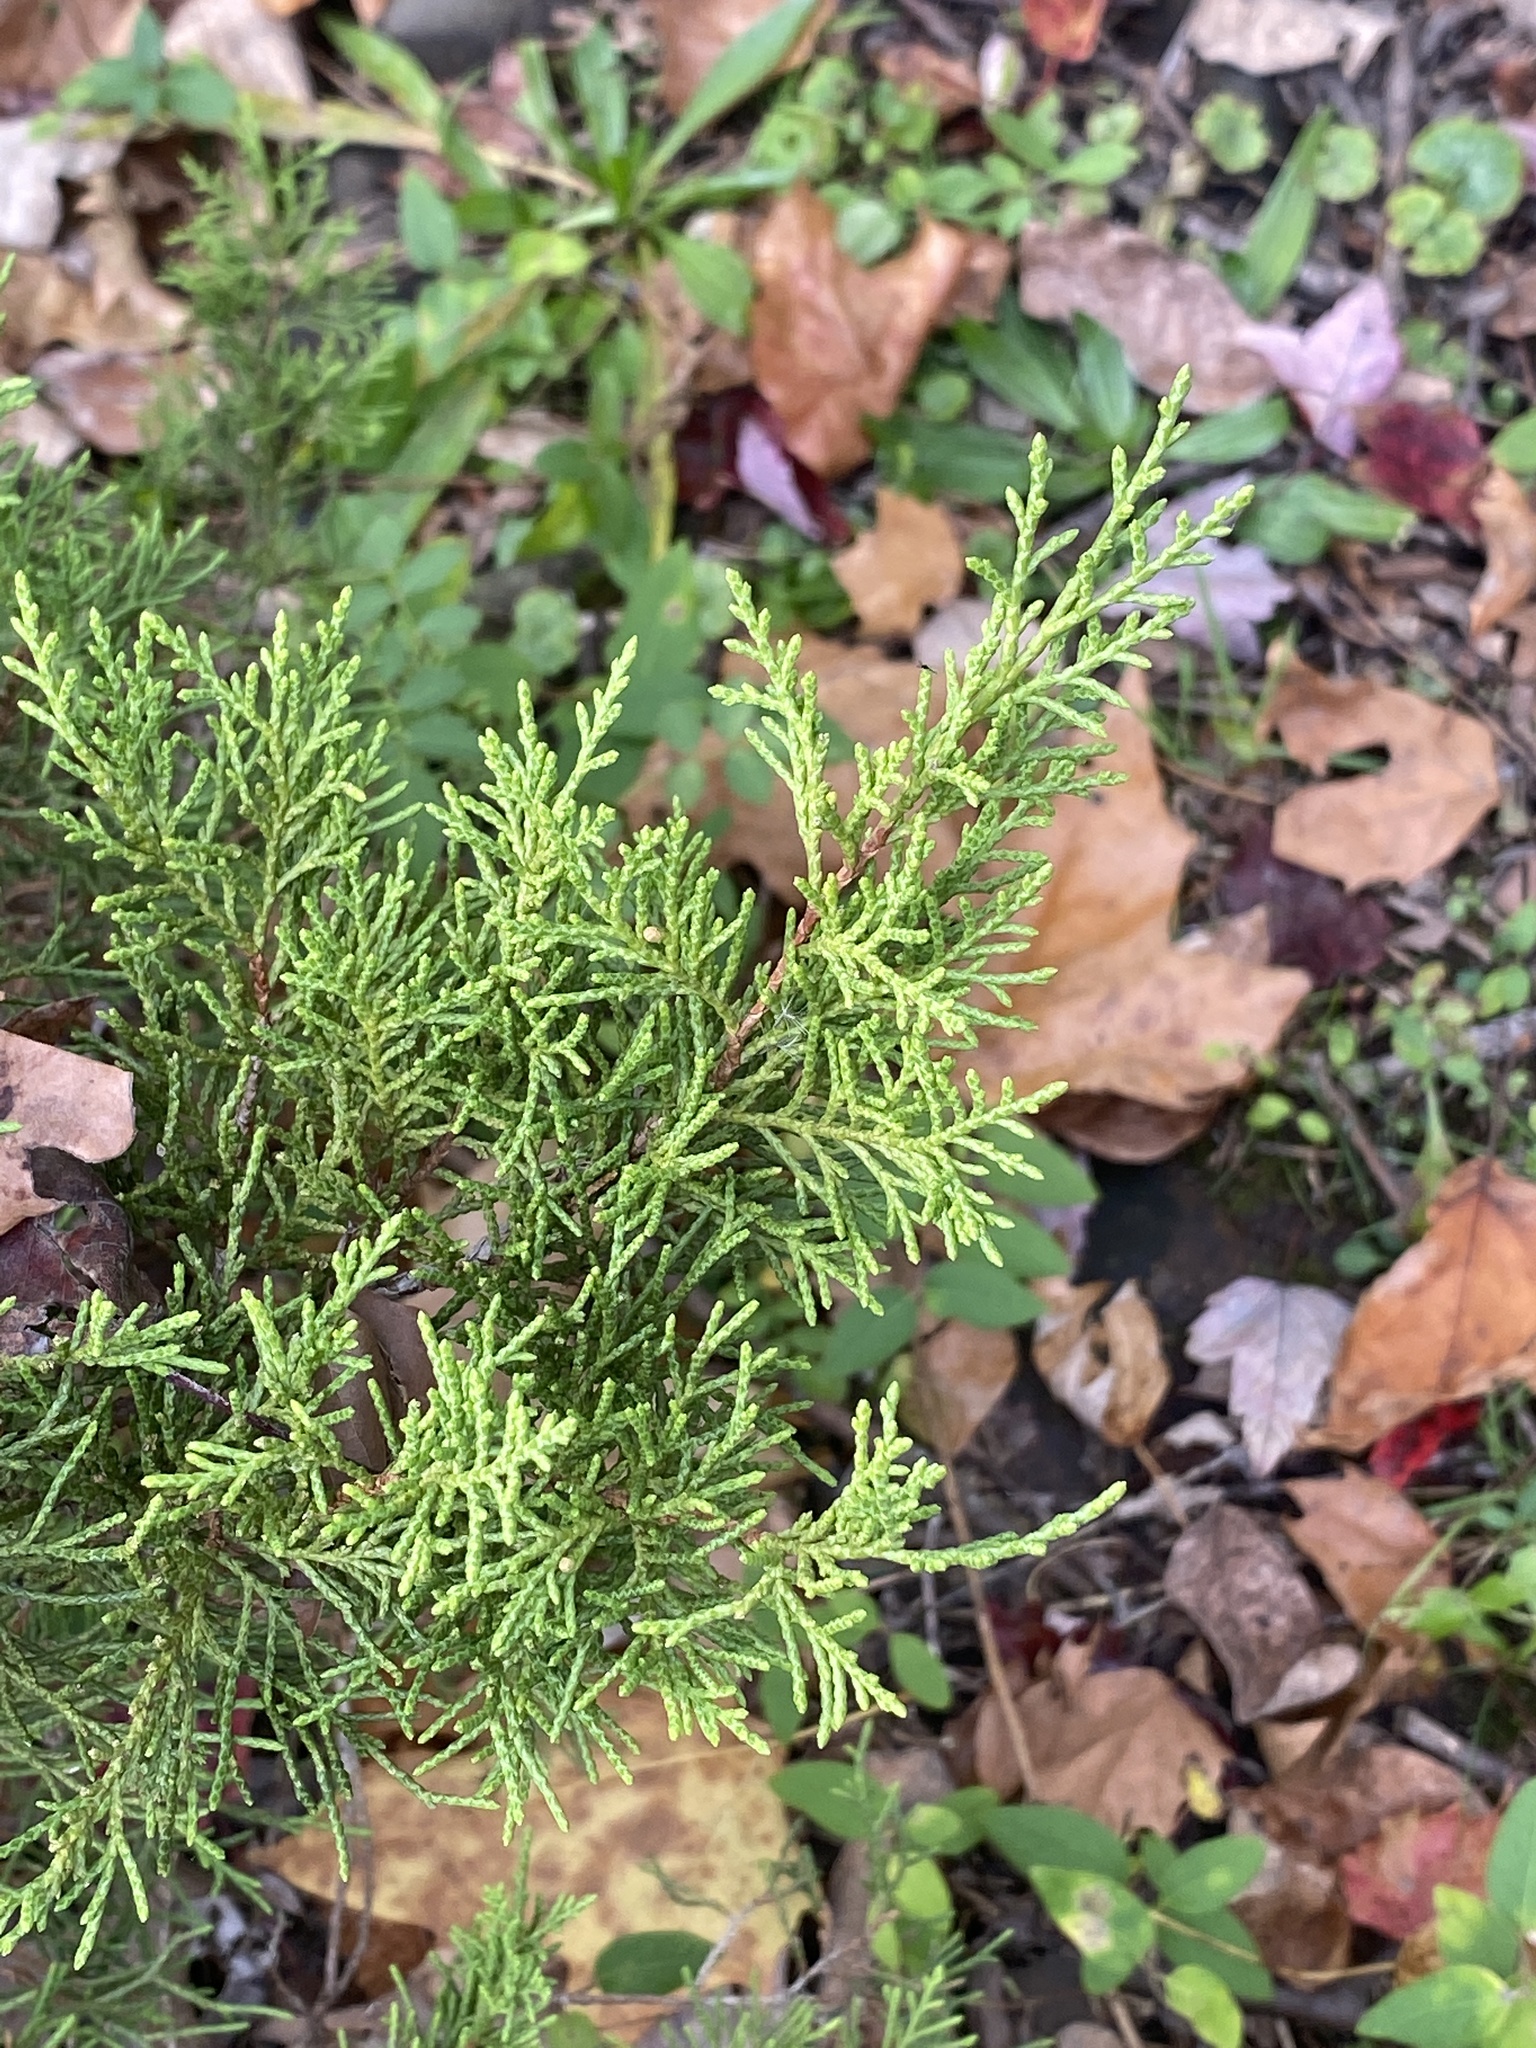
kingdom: Plantae
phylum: Tracheophyta
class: Pinopsida
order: Pinales
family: Cupressaceae
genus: Juniperus
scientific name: Juniperus virginiana
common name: Red juniper
